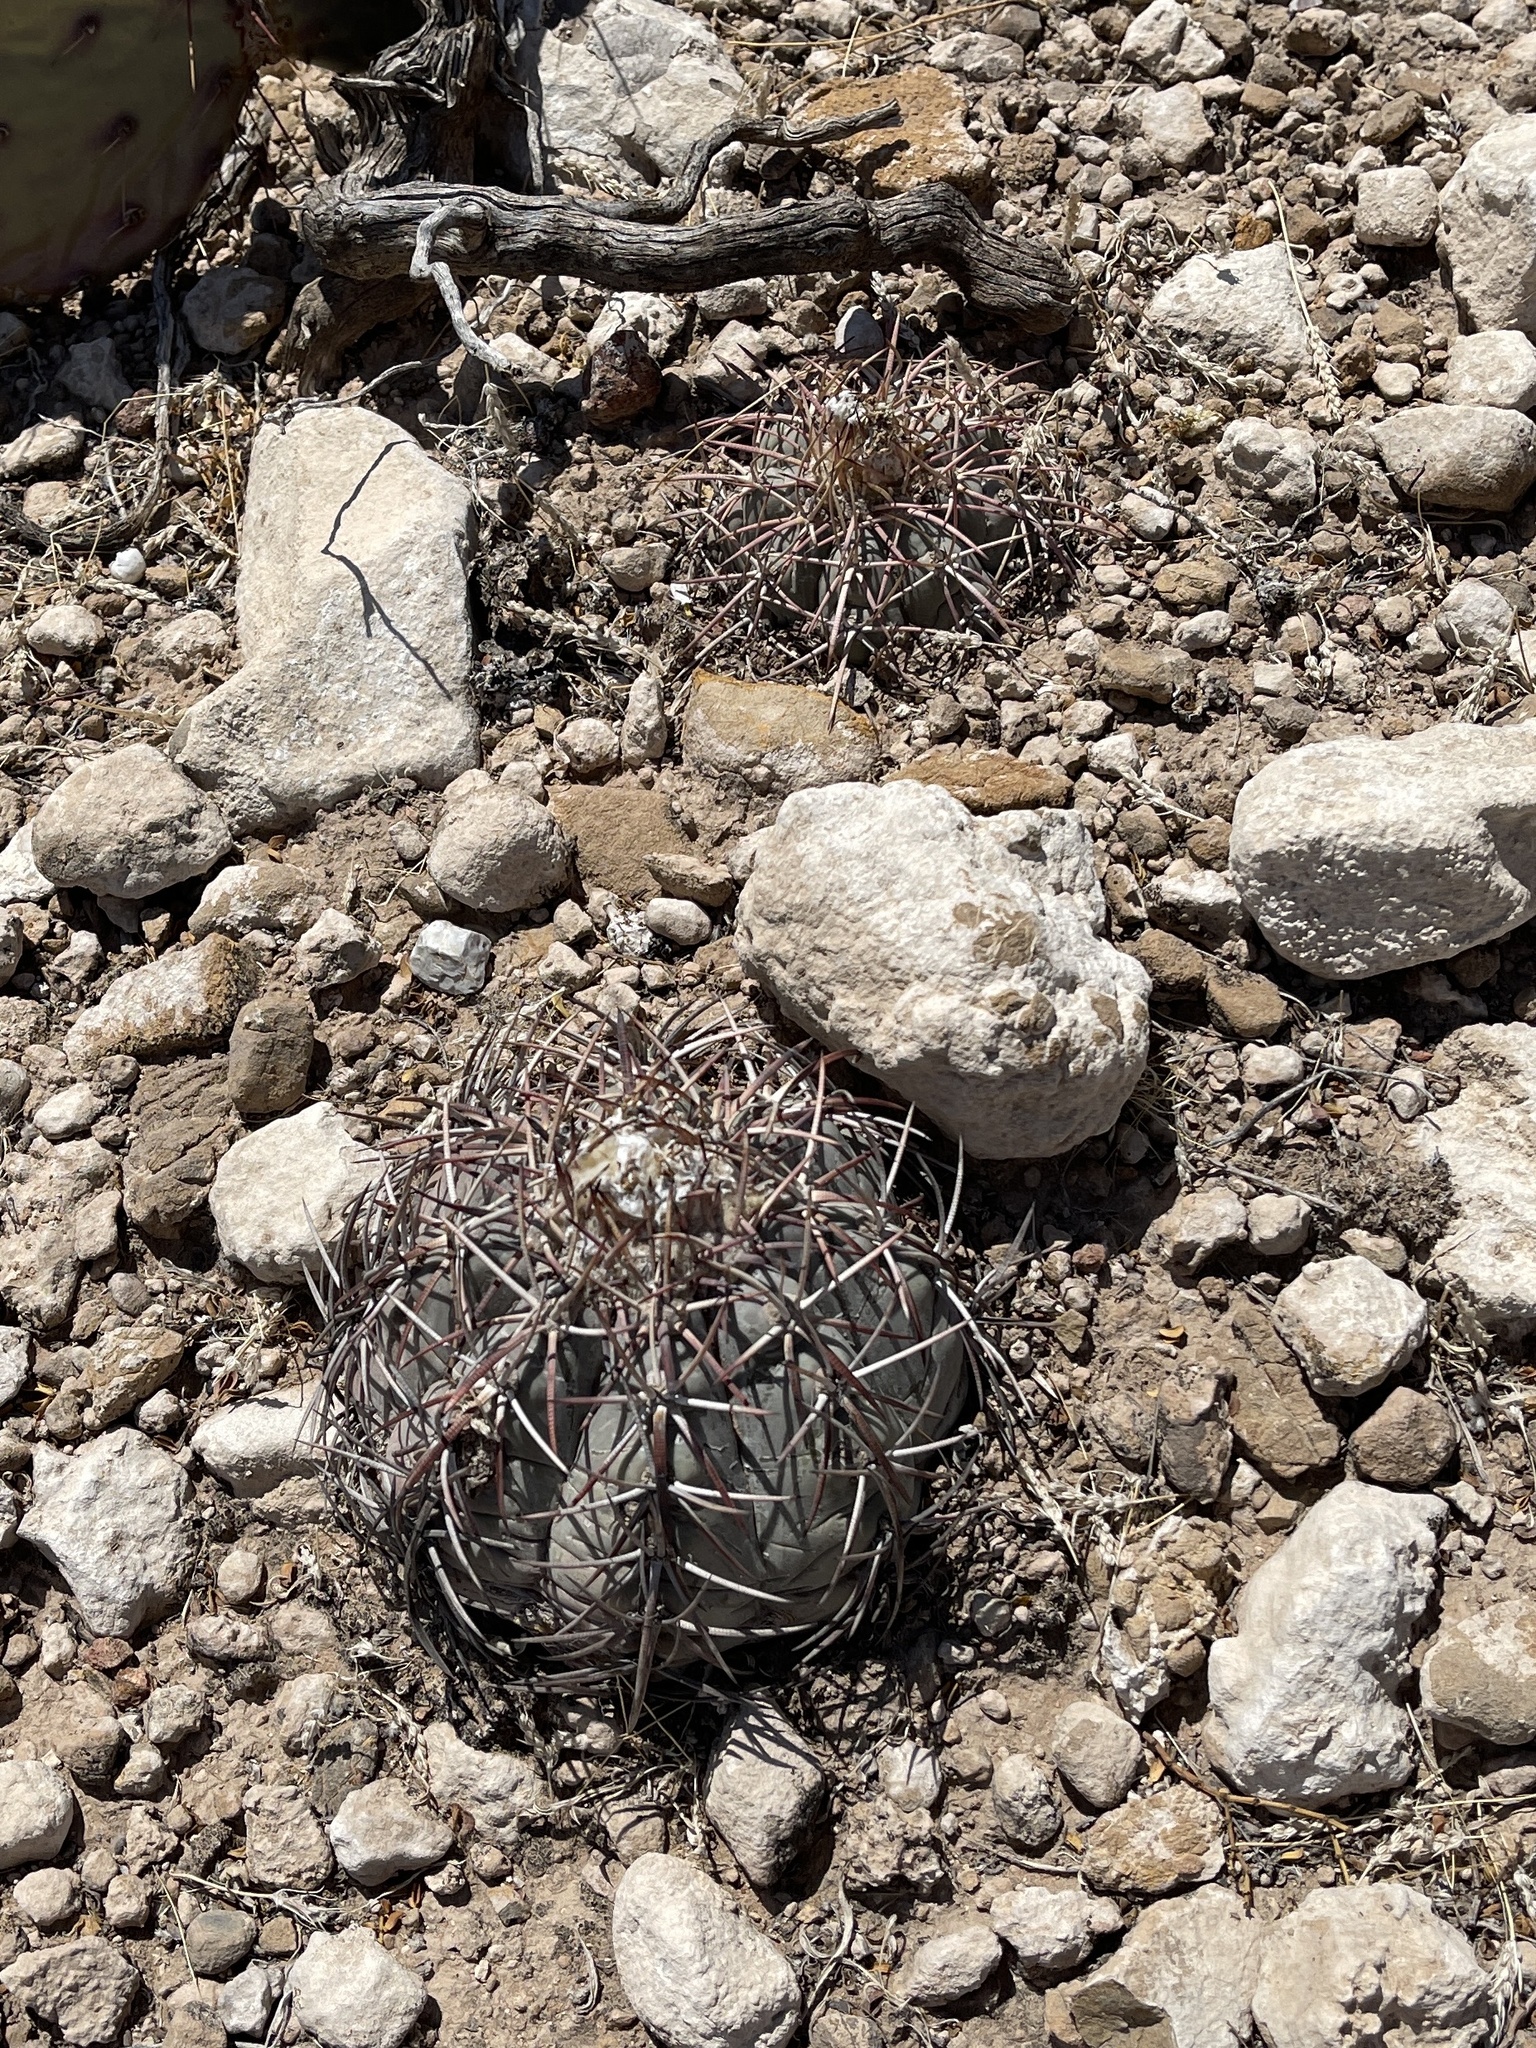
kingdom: Plantae
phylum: Tracheophyta
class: Magnoliopsida
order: Caryophyllales
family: Cactaceae
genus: Echinocactus
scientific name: Echinocactus horizonthalonius
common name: Devilshead
